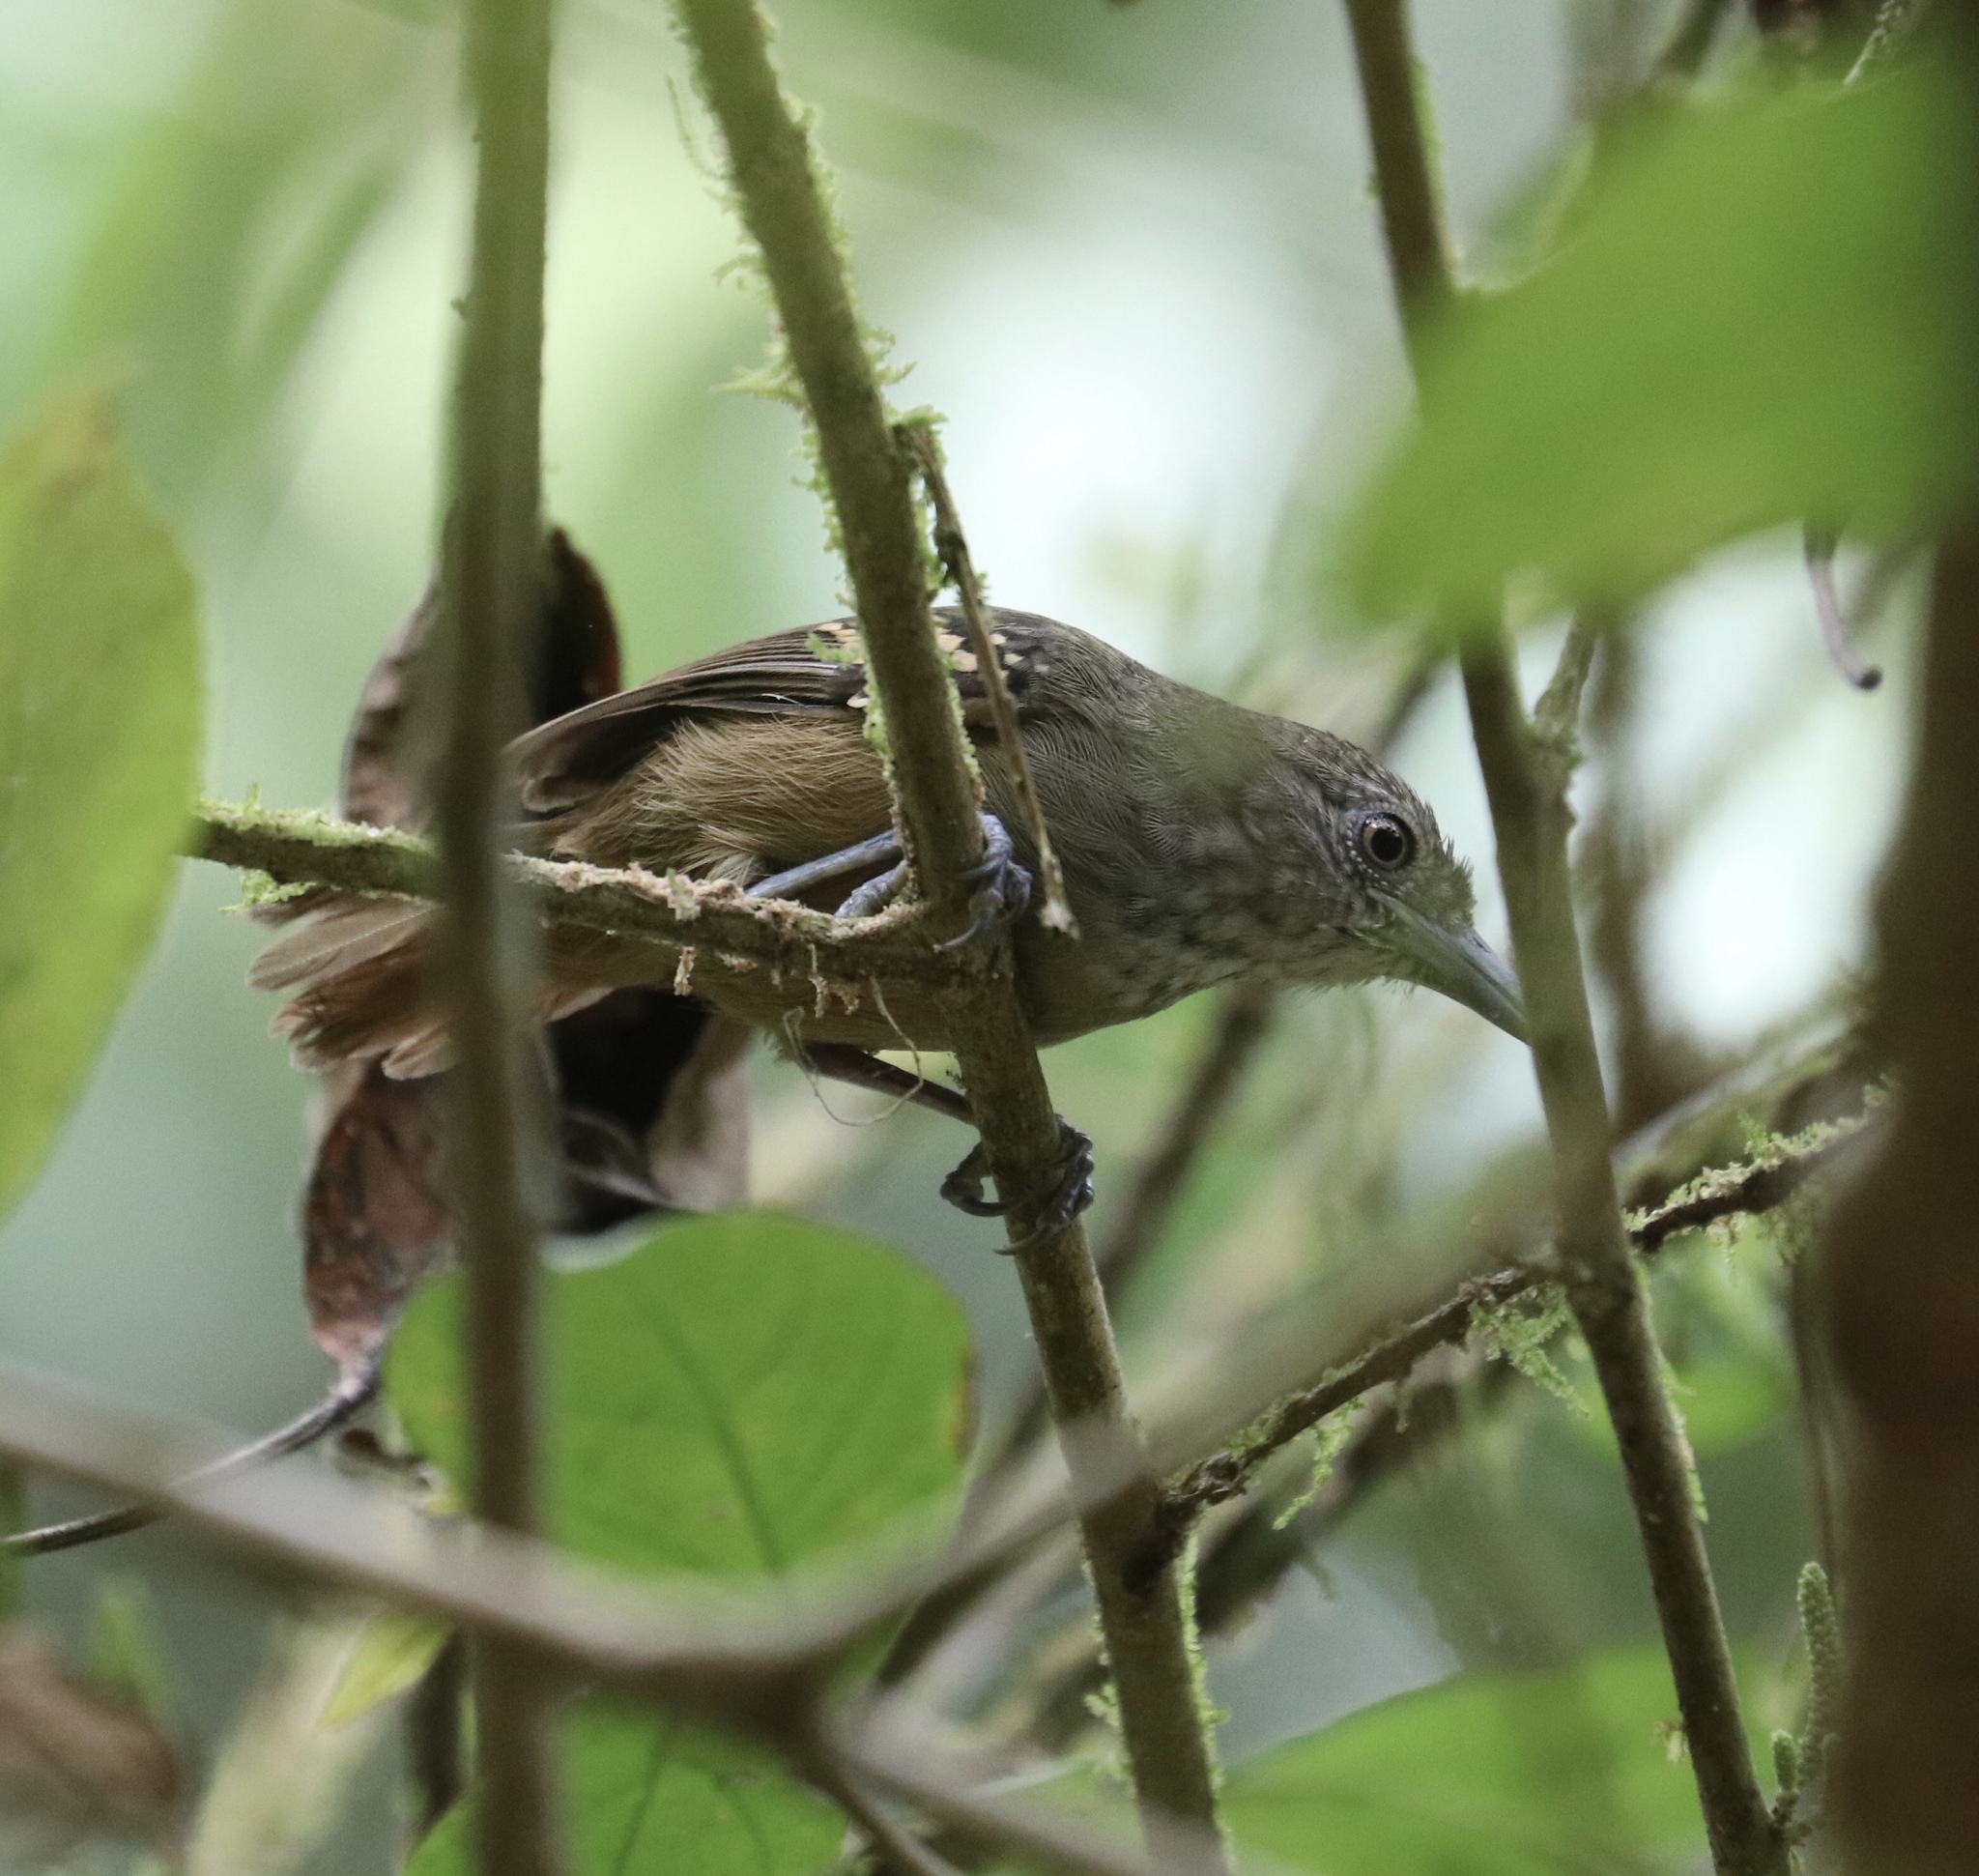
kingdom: Animalia
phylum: Chordata
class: Aves
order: Passeriformes
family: Thamnophilidae
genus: Epinecrophylla
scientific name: Epinecrophylla fulviventris
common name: Checker-throated antwren
